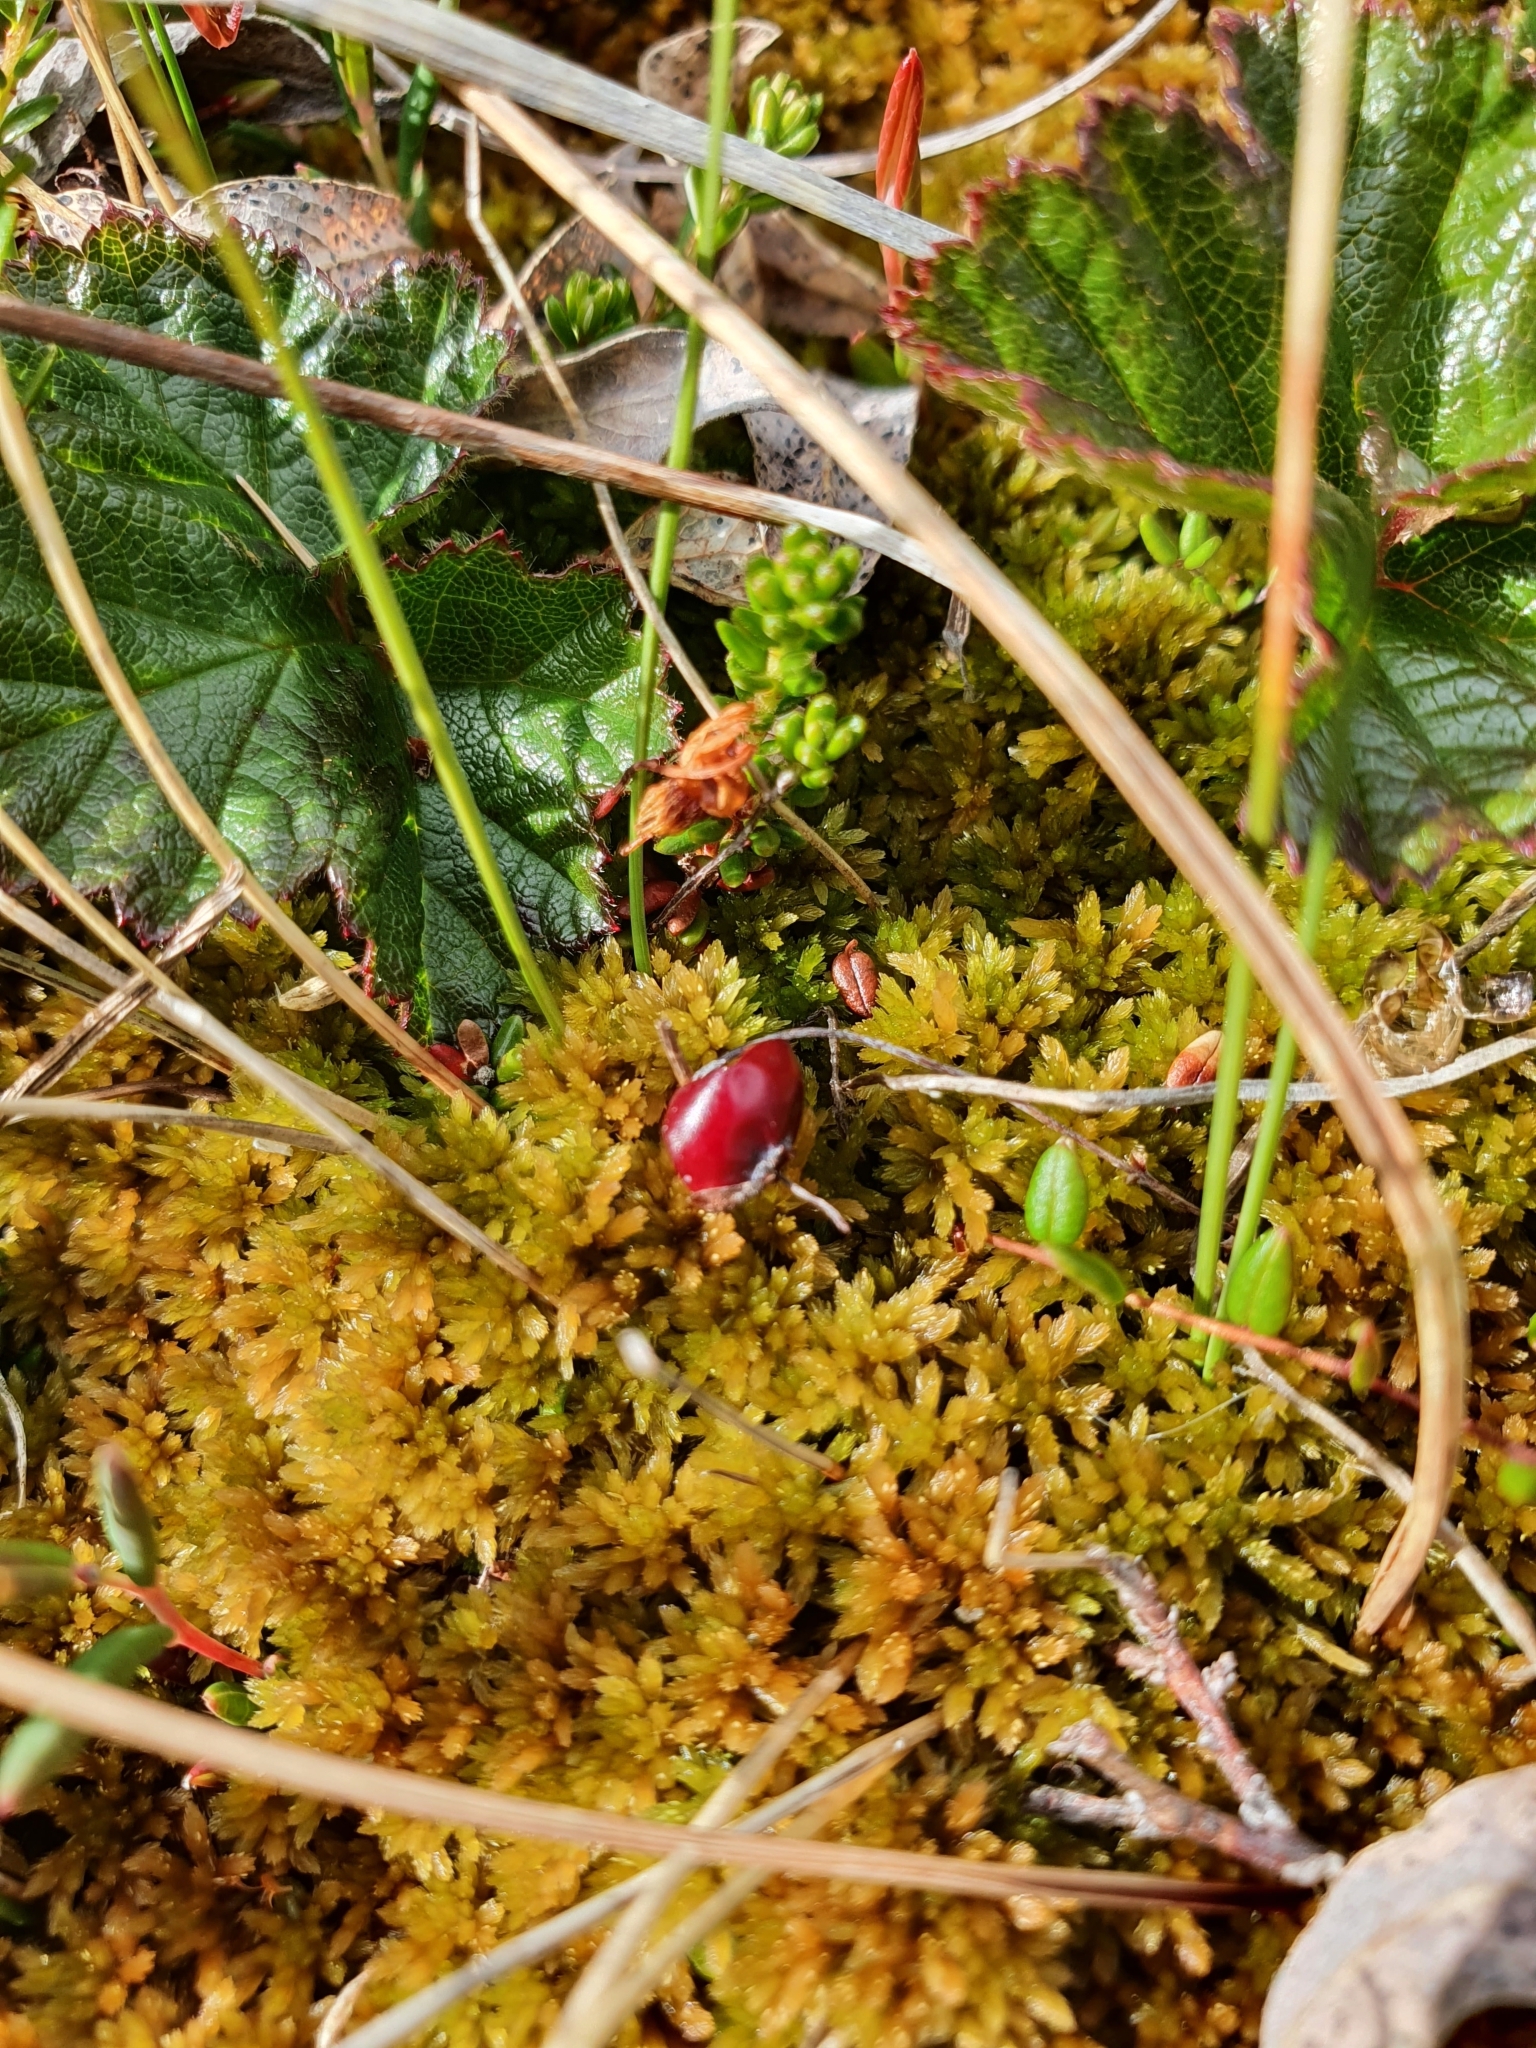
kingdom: Plantae
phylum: Tracheophyta
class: Magnoliopsida
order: Ericales
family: Ericaceae
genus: Vaccinium
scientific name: Vaccinium microcarpum
